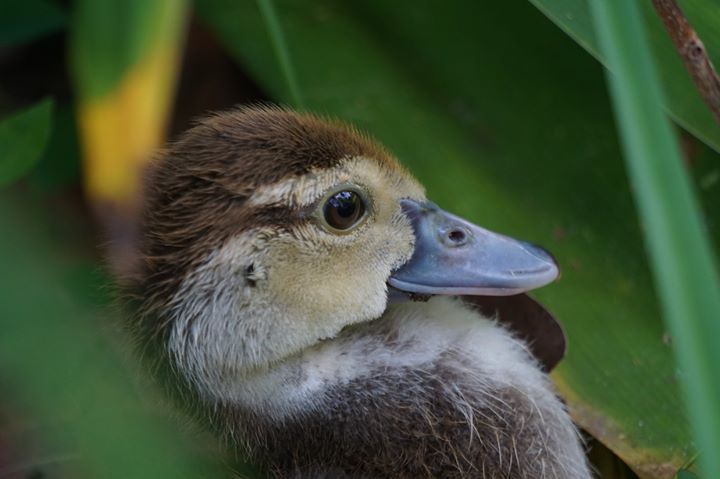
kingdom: Animalia
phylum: Chordata
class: Aves
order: Anseriformes
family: Anatidae
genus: Cairina
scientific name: Cairina moschata
